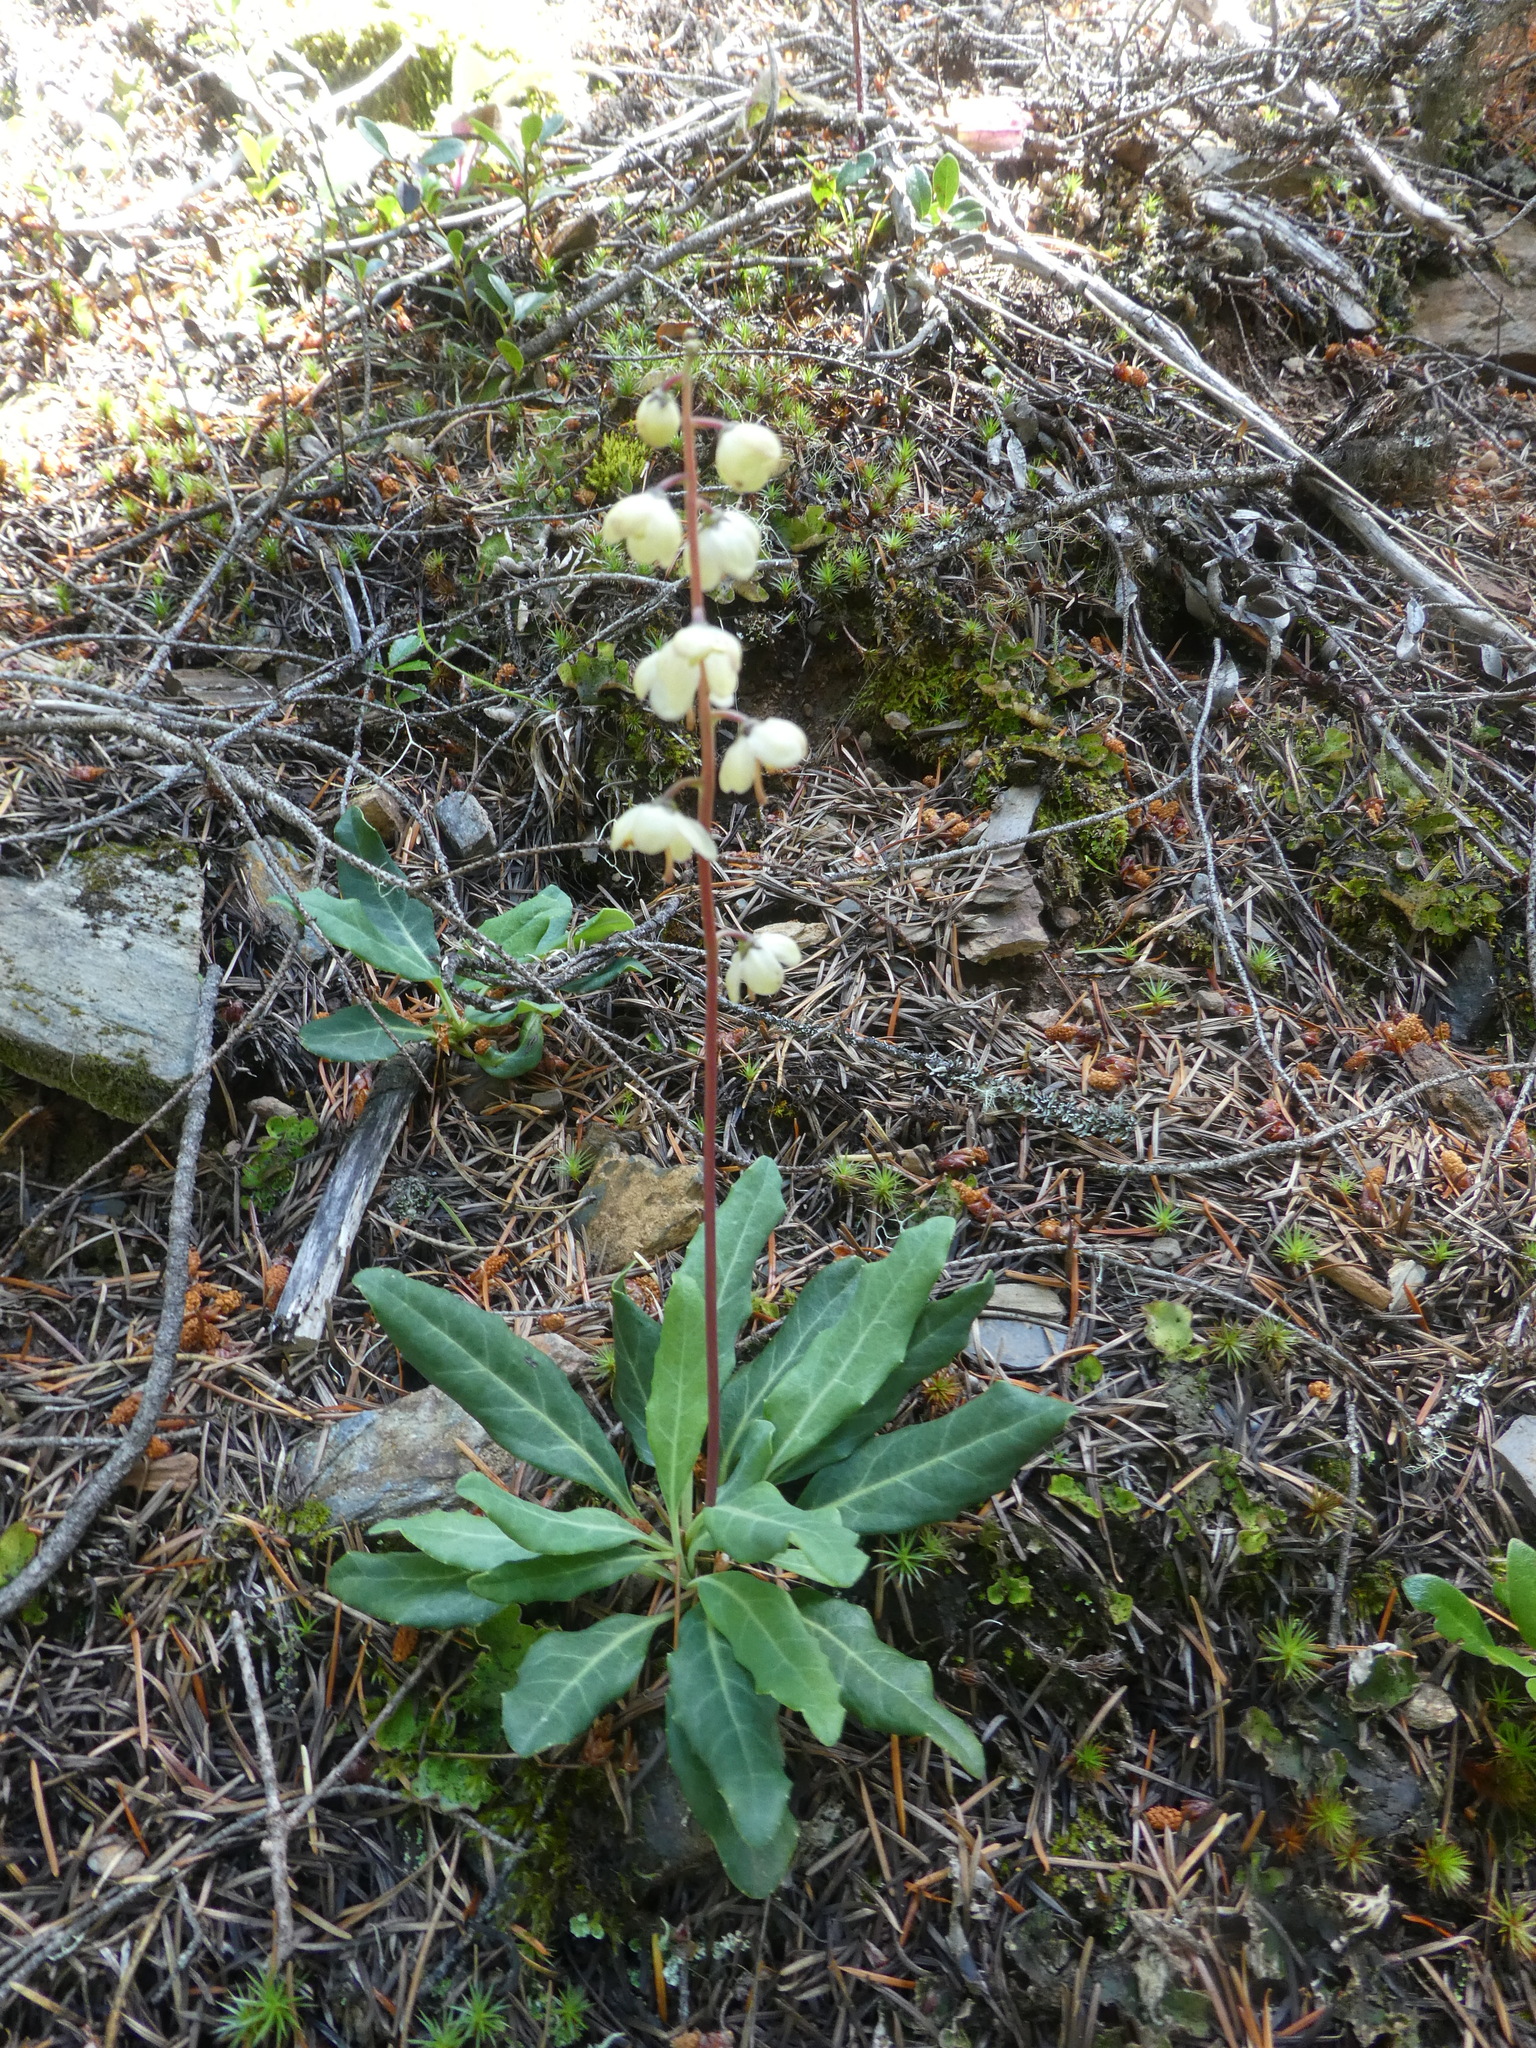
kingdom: Plantae
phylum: Tracheophyta
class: Magnoliopsida
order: Ericales
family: Ericaceae
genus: Pyrola
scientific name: Pyrola dentata
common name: Tooth-leaved wintergreen
